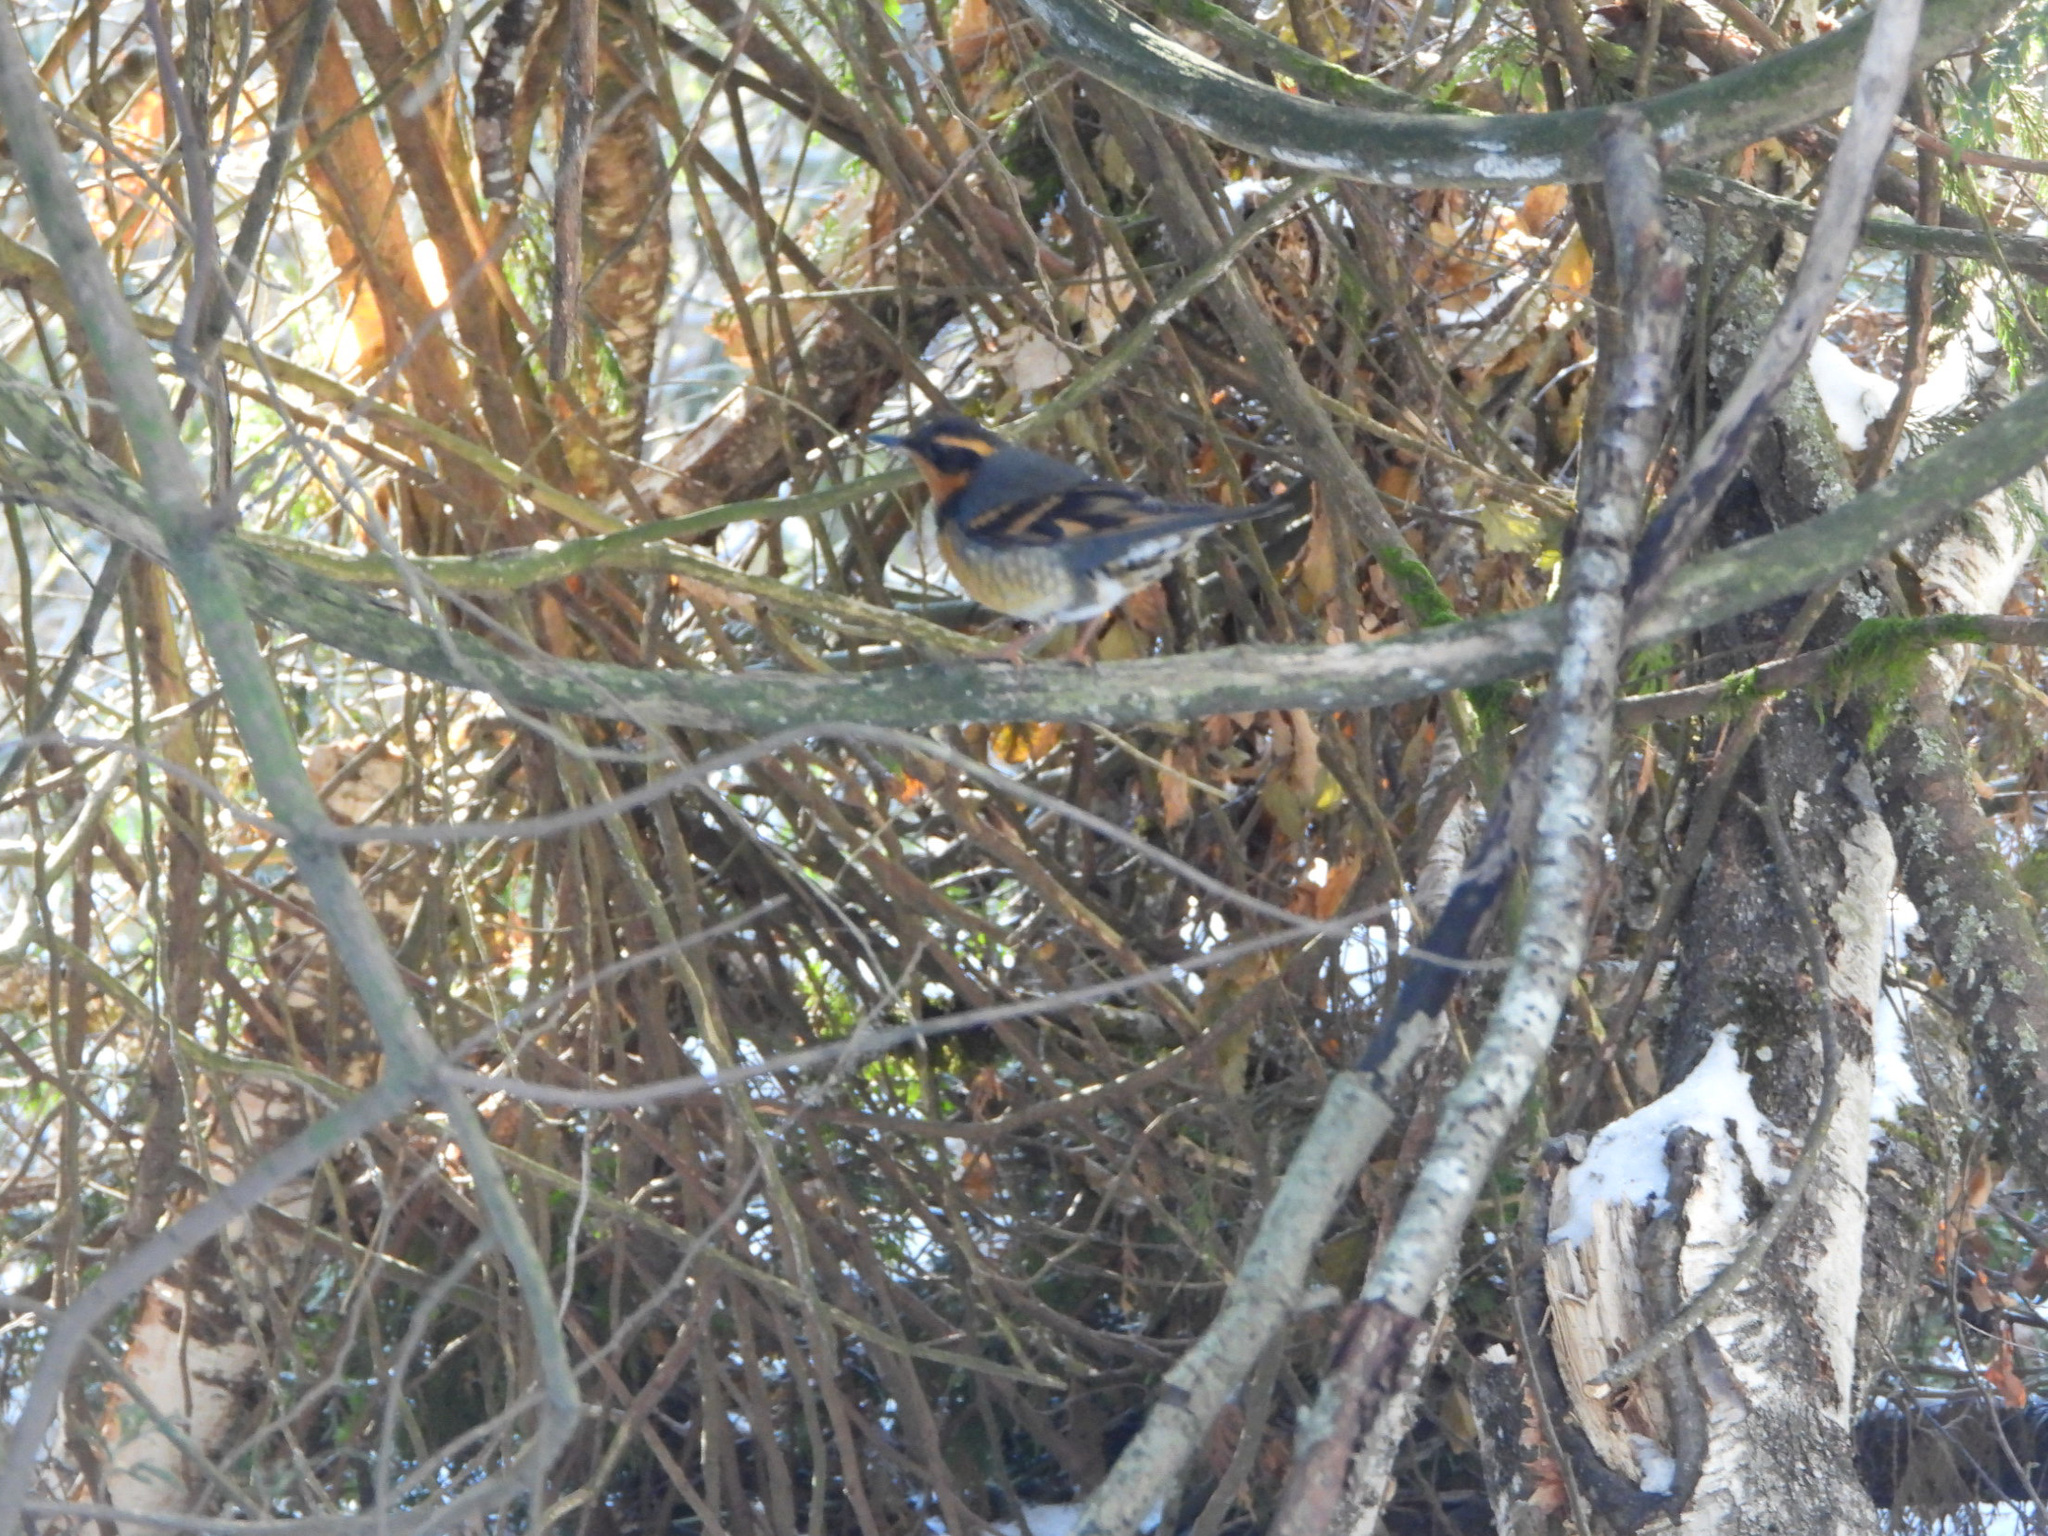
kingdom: Animalia
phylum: Chordata
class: Aves
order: Passeriformes
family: Turdidae
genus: Ixoreus
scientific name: Ixoreus naevius
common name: Varied thrush
